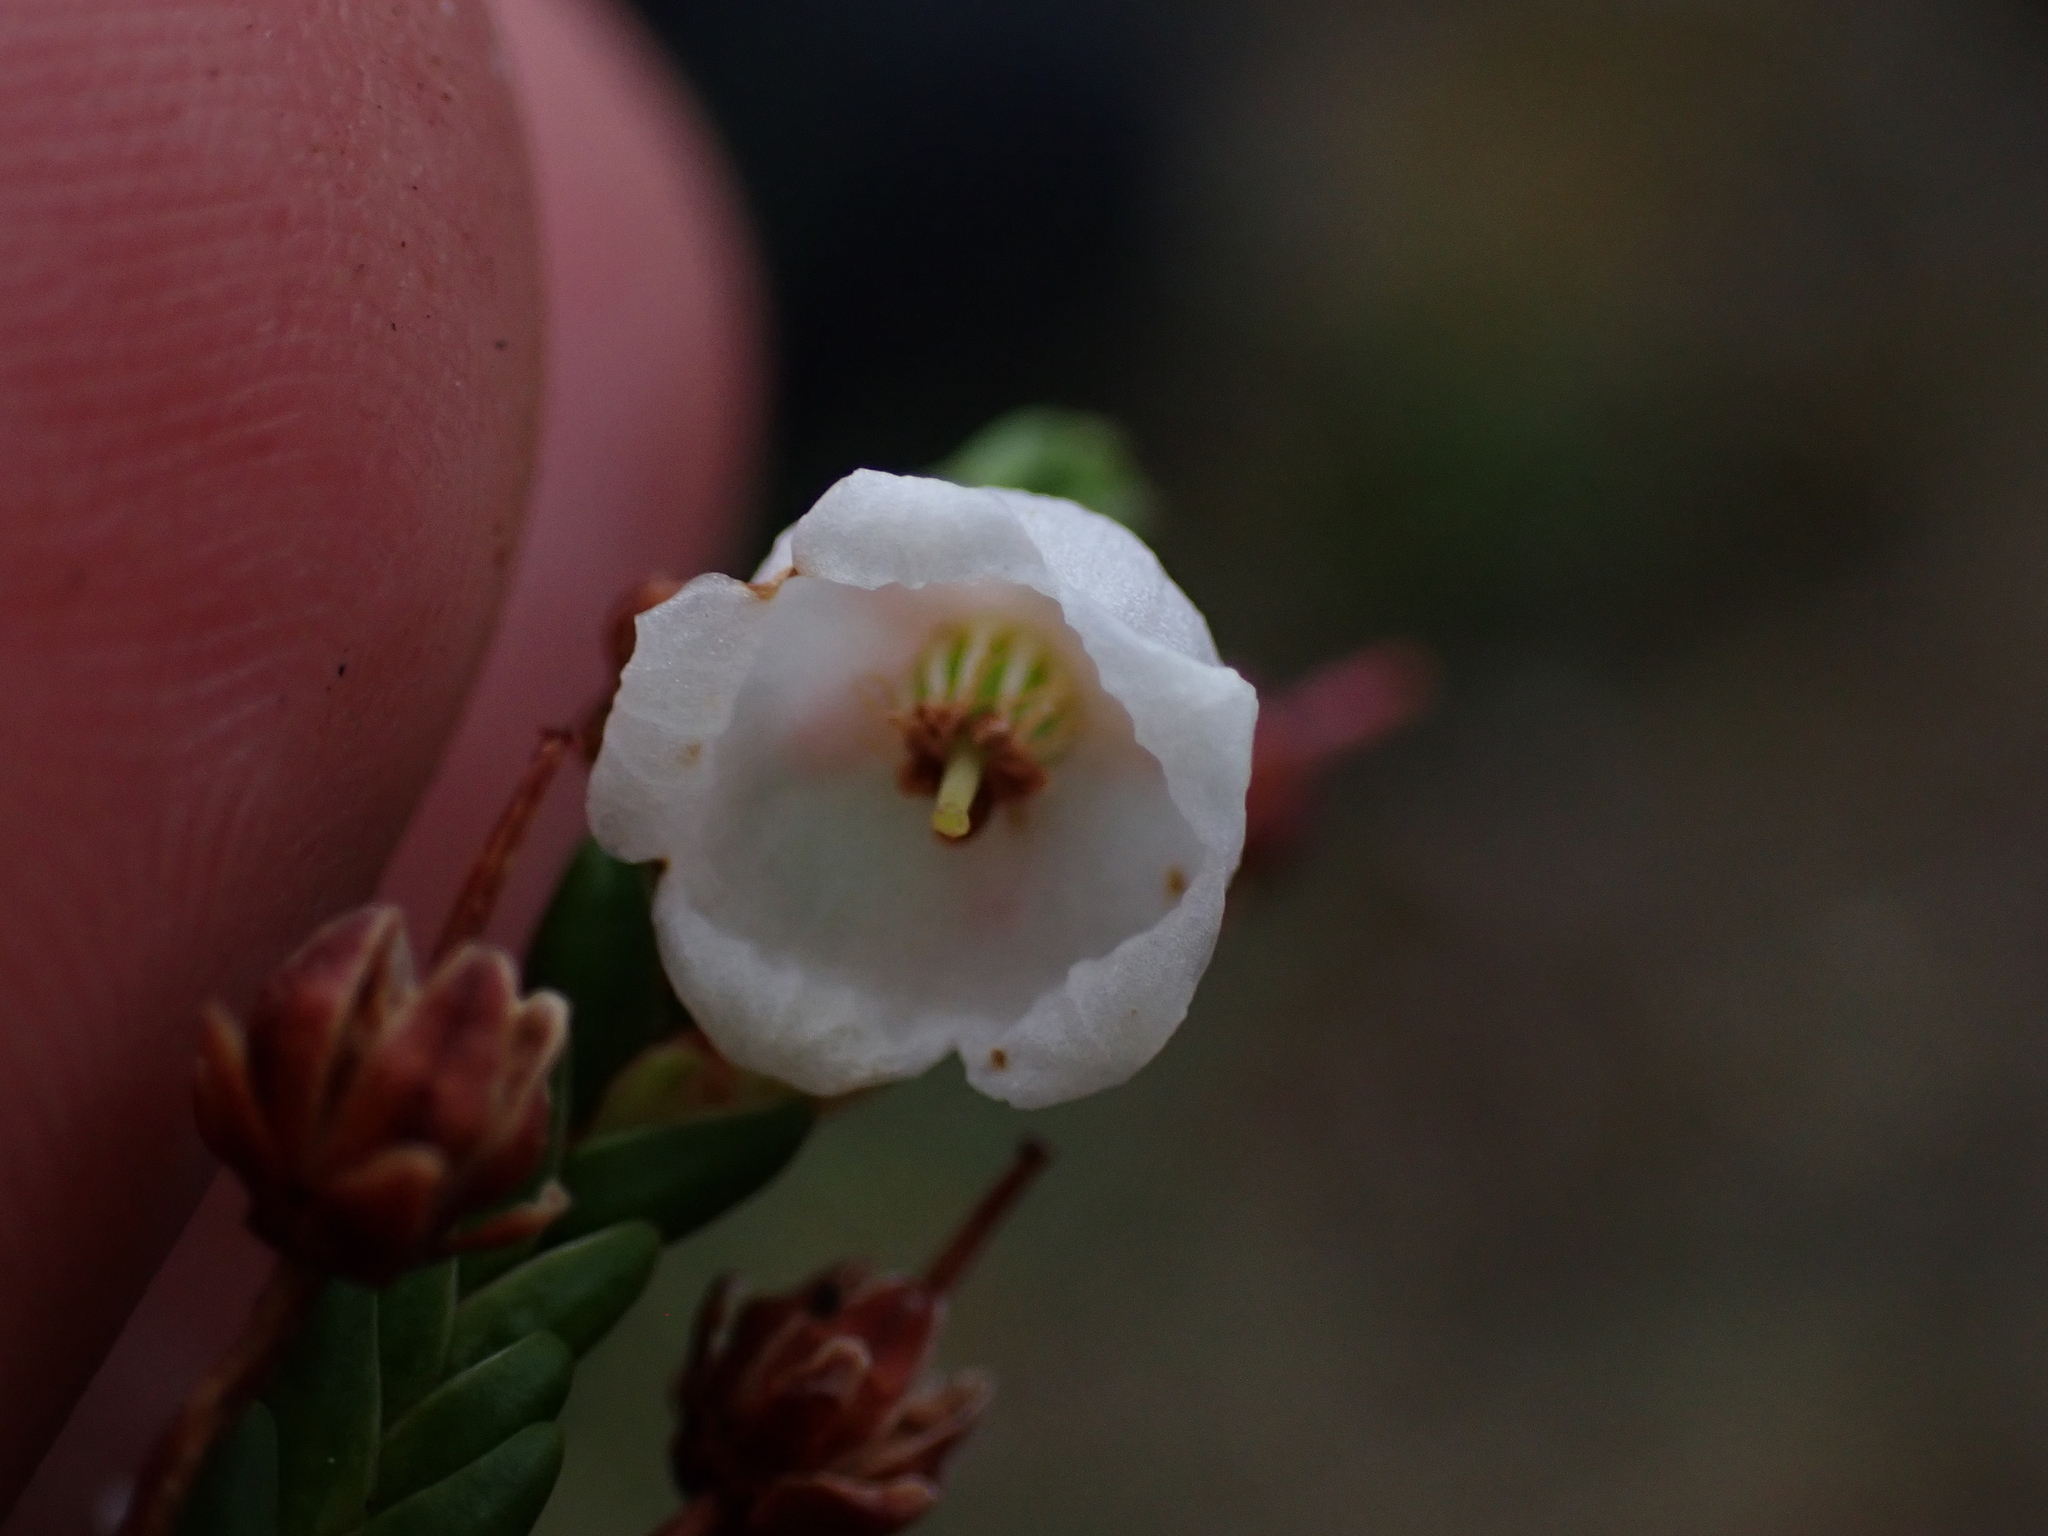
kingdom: Plantae
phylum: Tracheophyta
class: Magnoliopsida
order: Ericales
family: Ericaceae
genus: Cassiope
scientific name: Cassiope mertensiana
